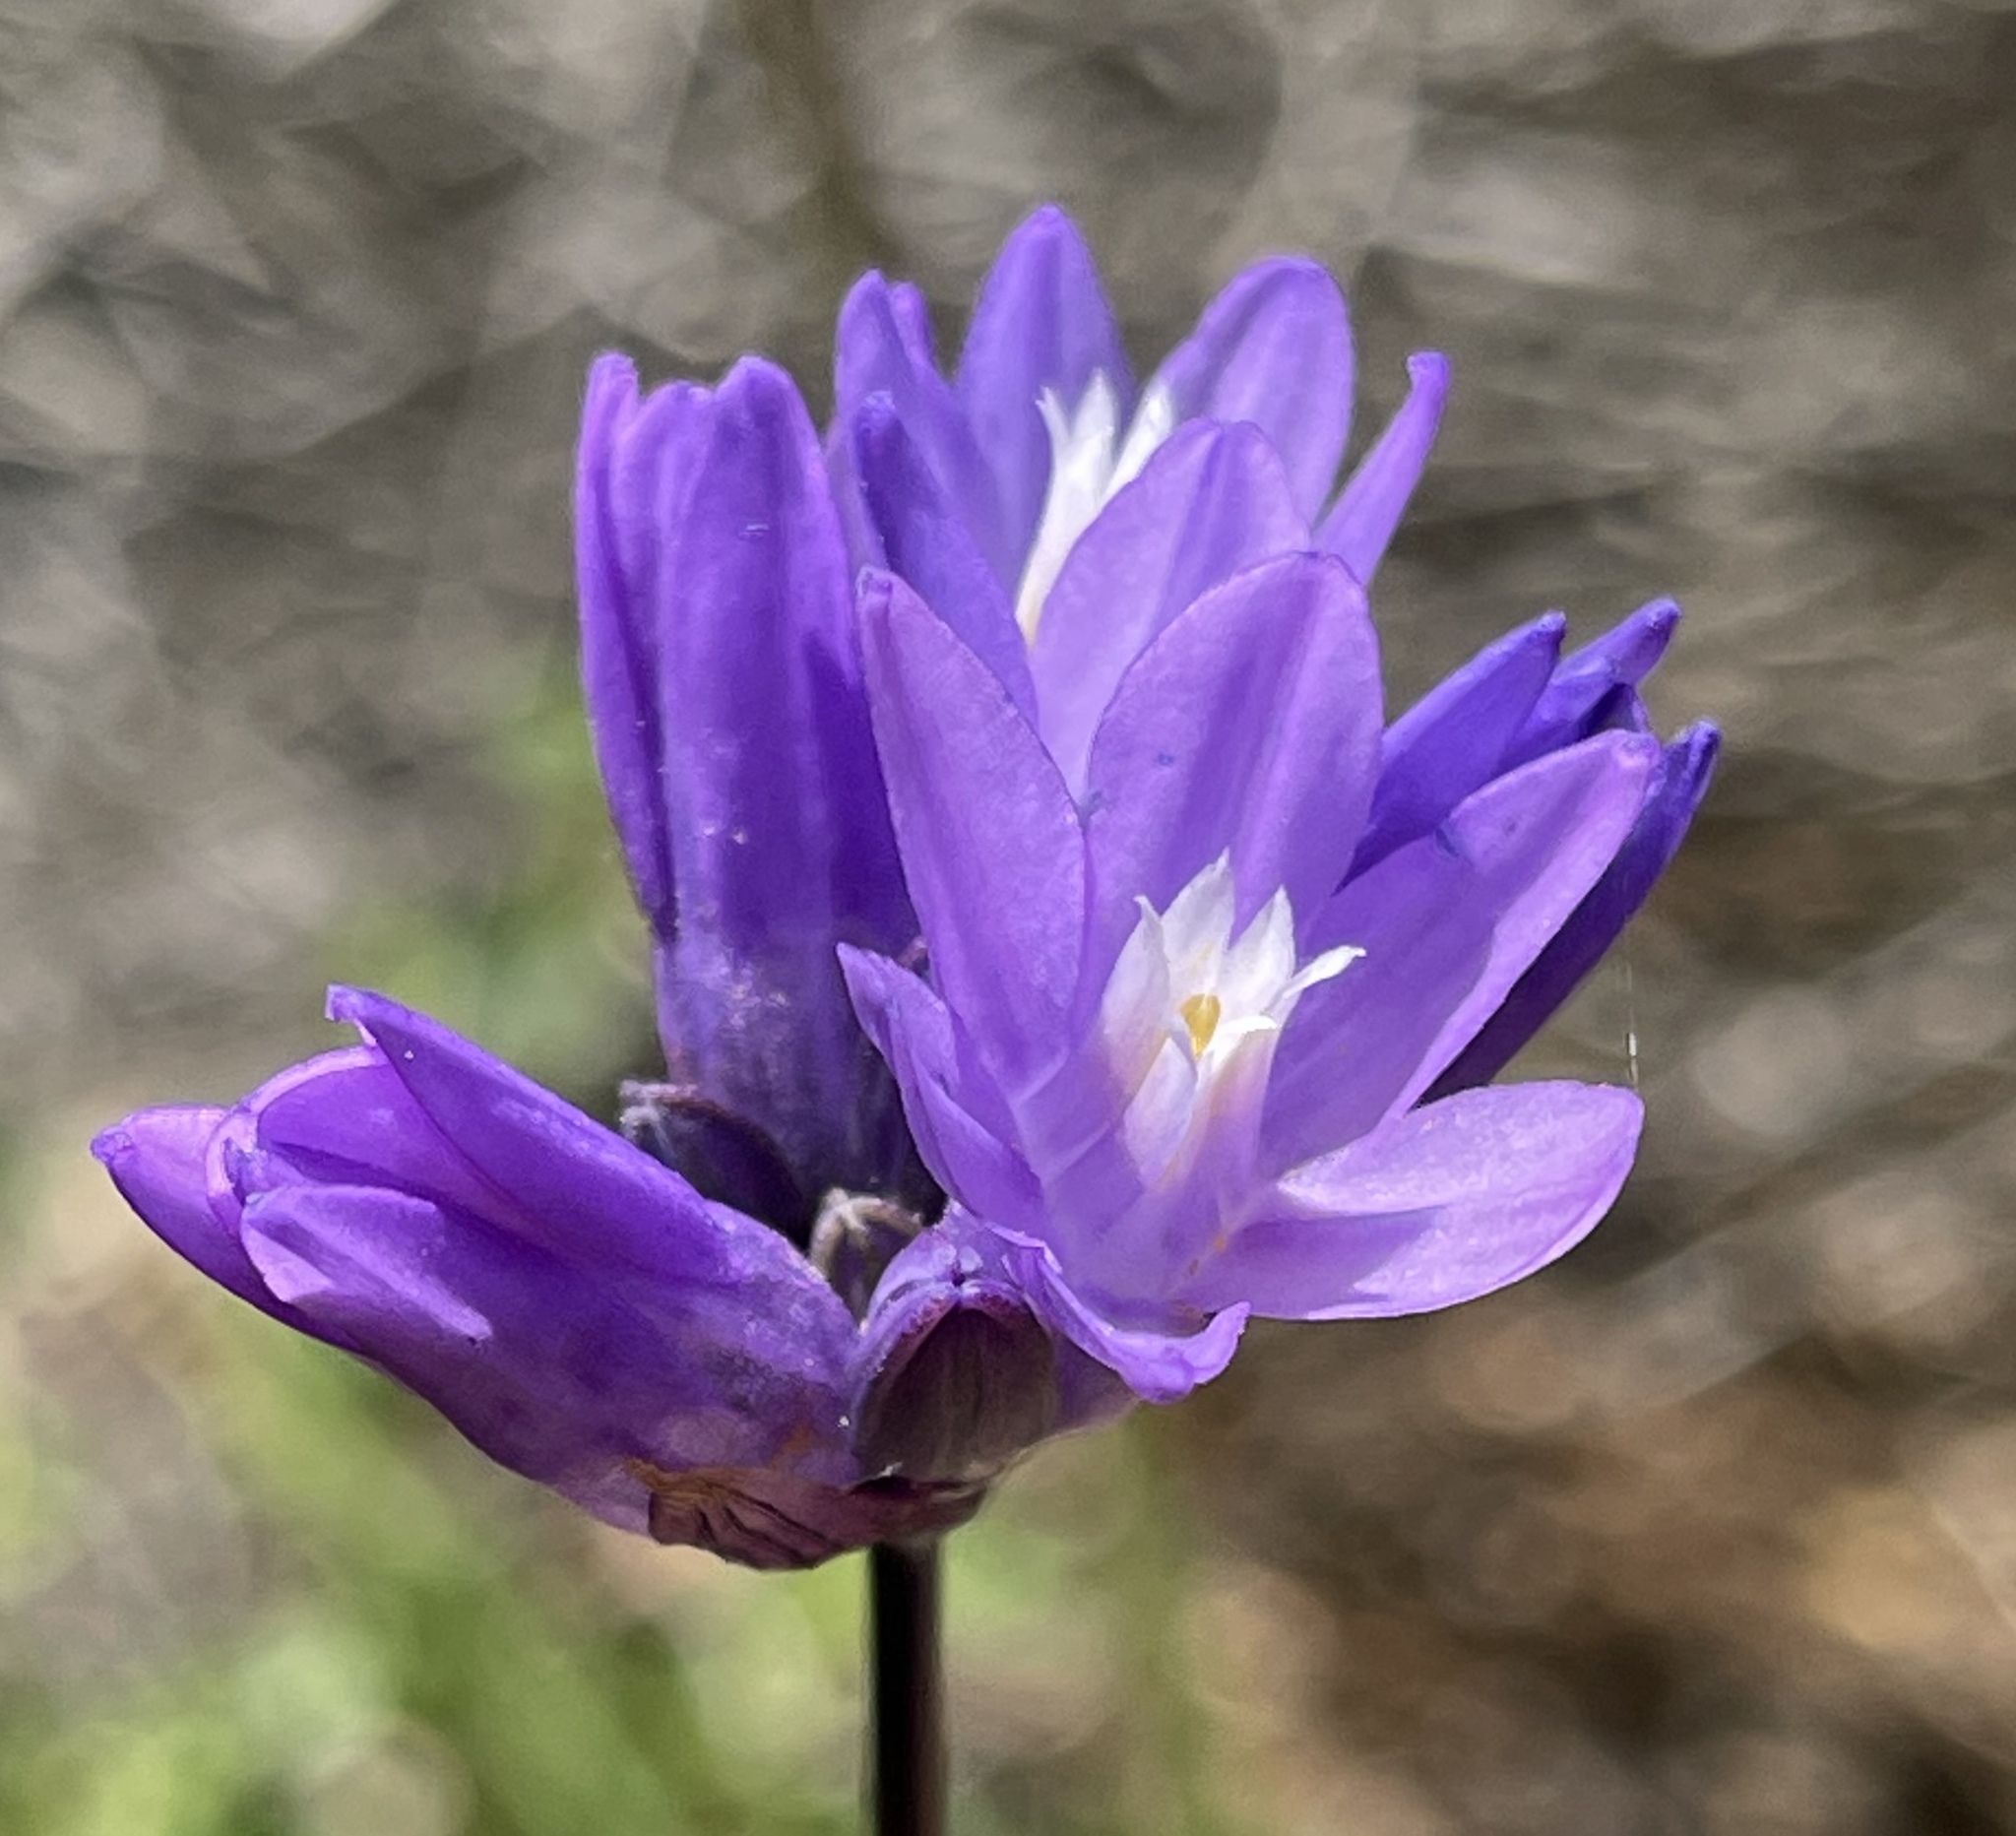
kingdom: Plantae
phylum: Tracheophyta
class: Liliopsida
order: Asparagales
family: Asparagaceae
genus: Dipterostemon
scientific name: Dipterostemon capitatus
